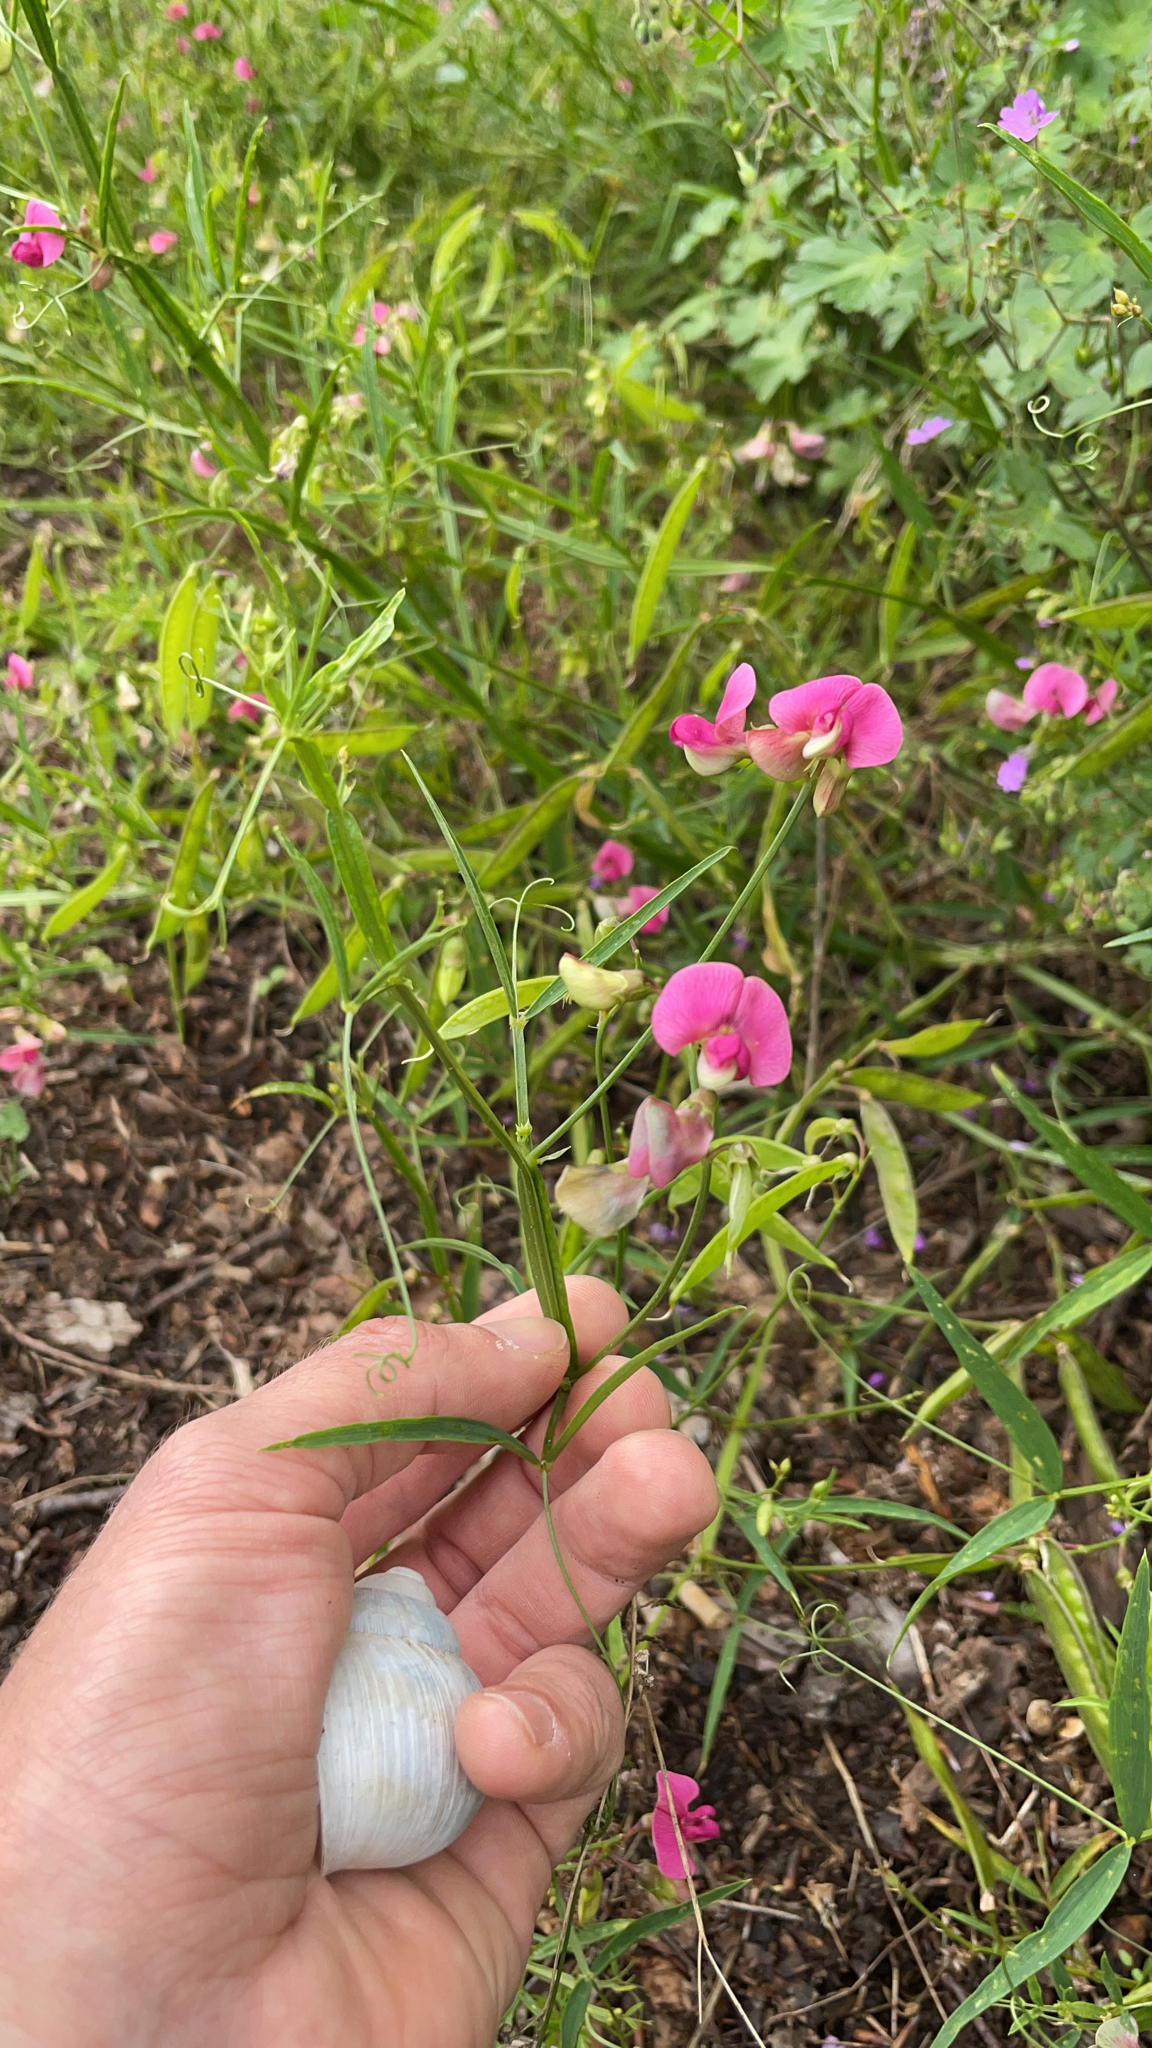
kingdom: Plantae
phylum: Tracheophyta
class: Magnoliopsida
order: Fabales
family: Fabaceae
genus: Lathyrus
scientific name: Lathyrus sylvestris
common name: Flat pea
